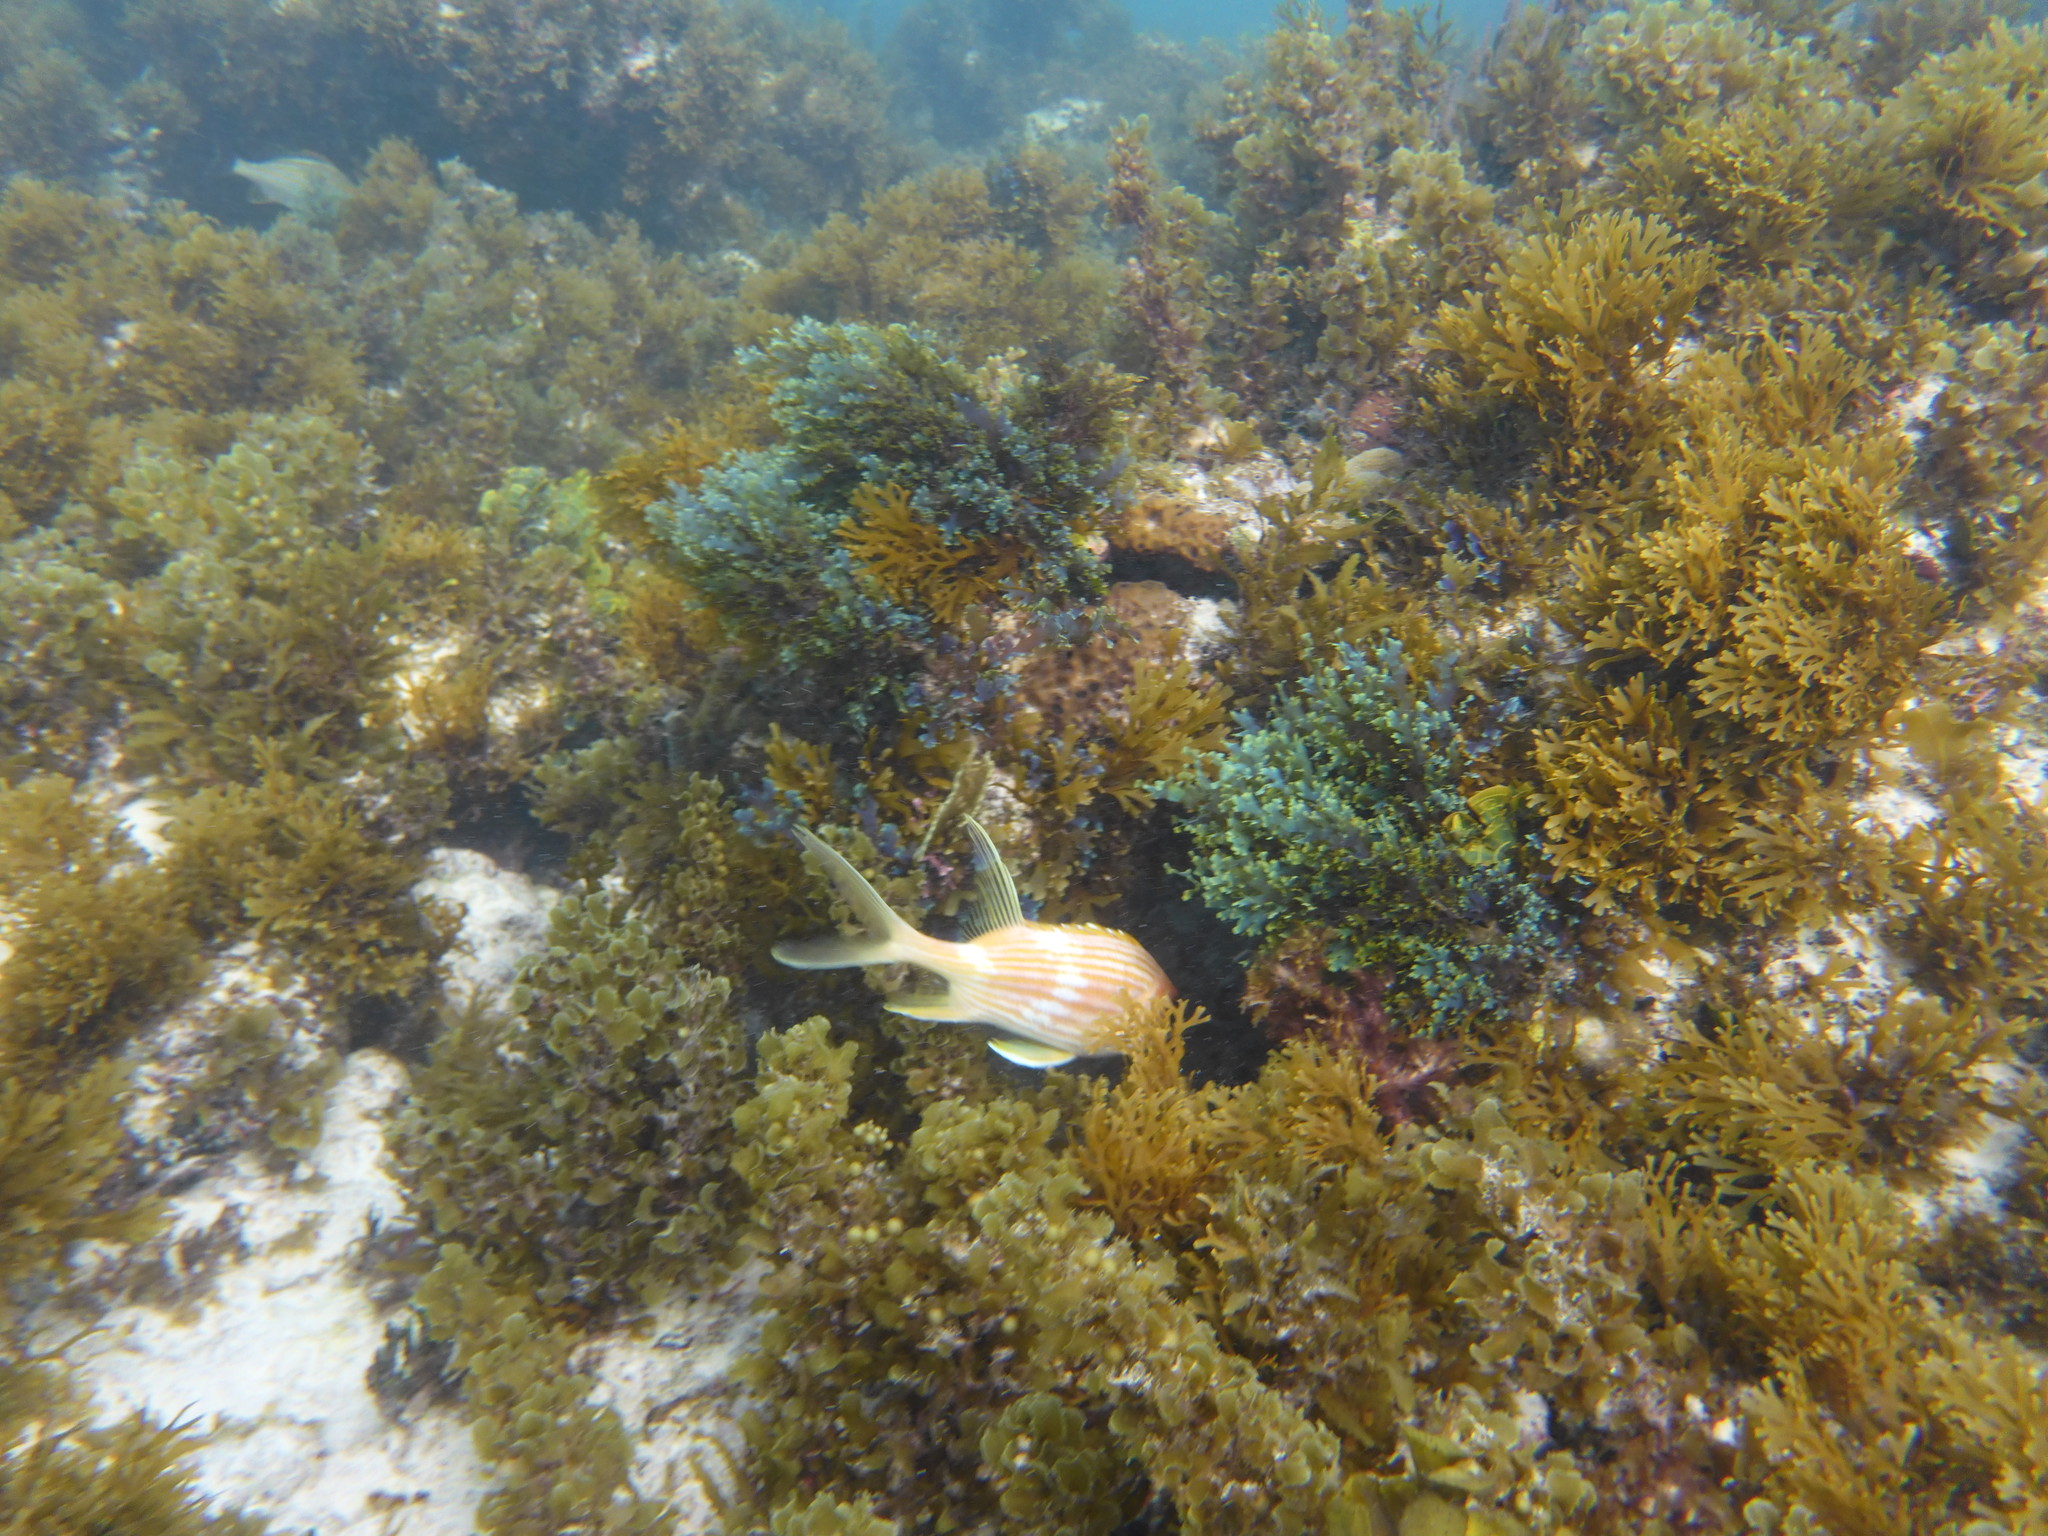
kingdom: Animalia
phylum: Chordata
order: Beryciformes
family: Holocentridae
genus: Holocentrus
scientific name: Holocentrus rufus
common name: Longspine squirrelfish
